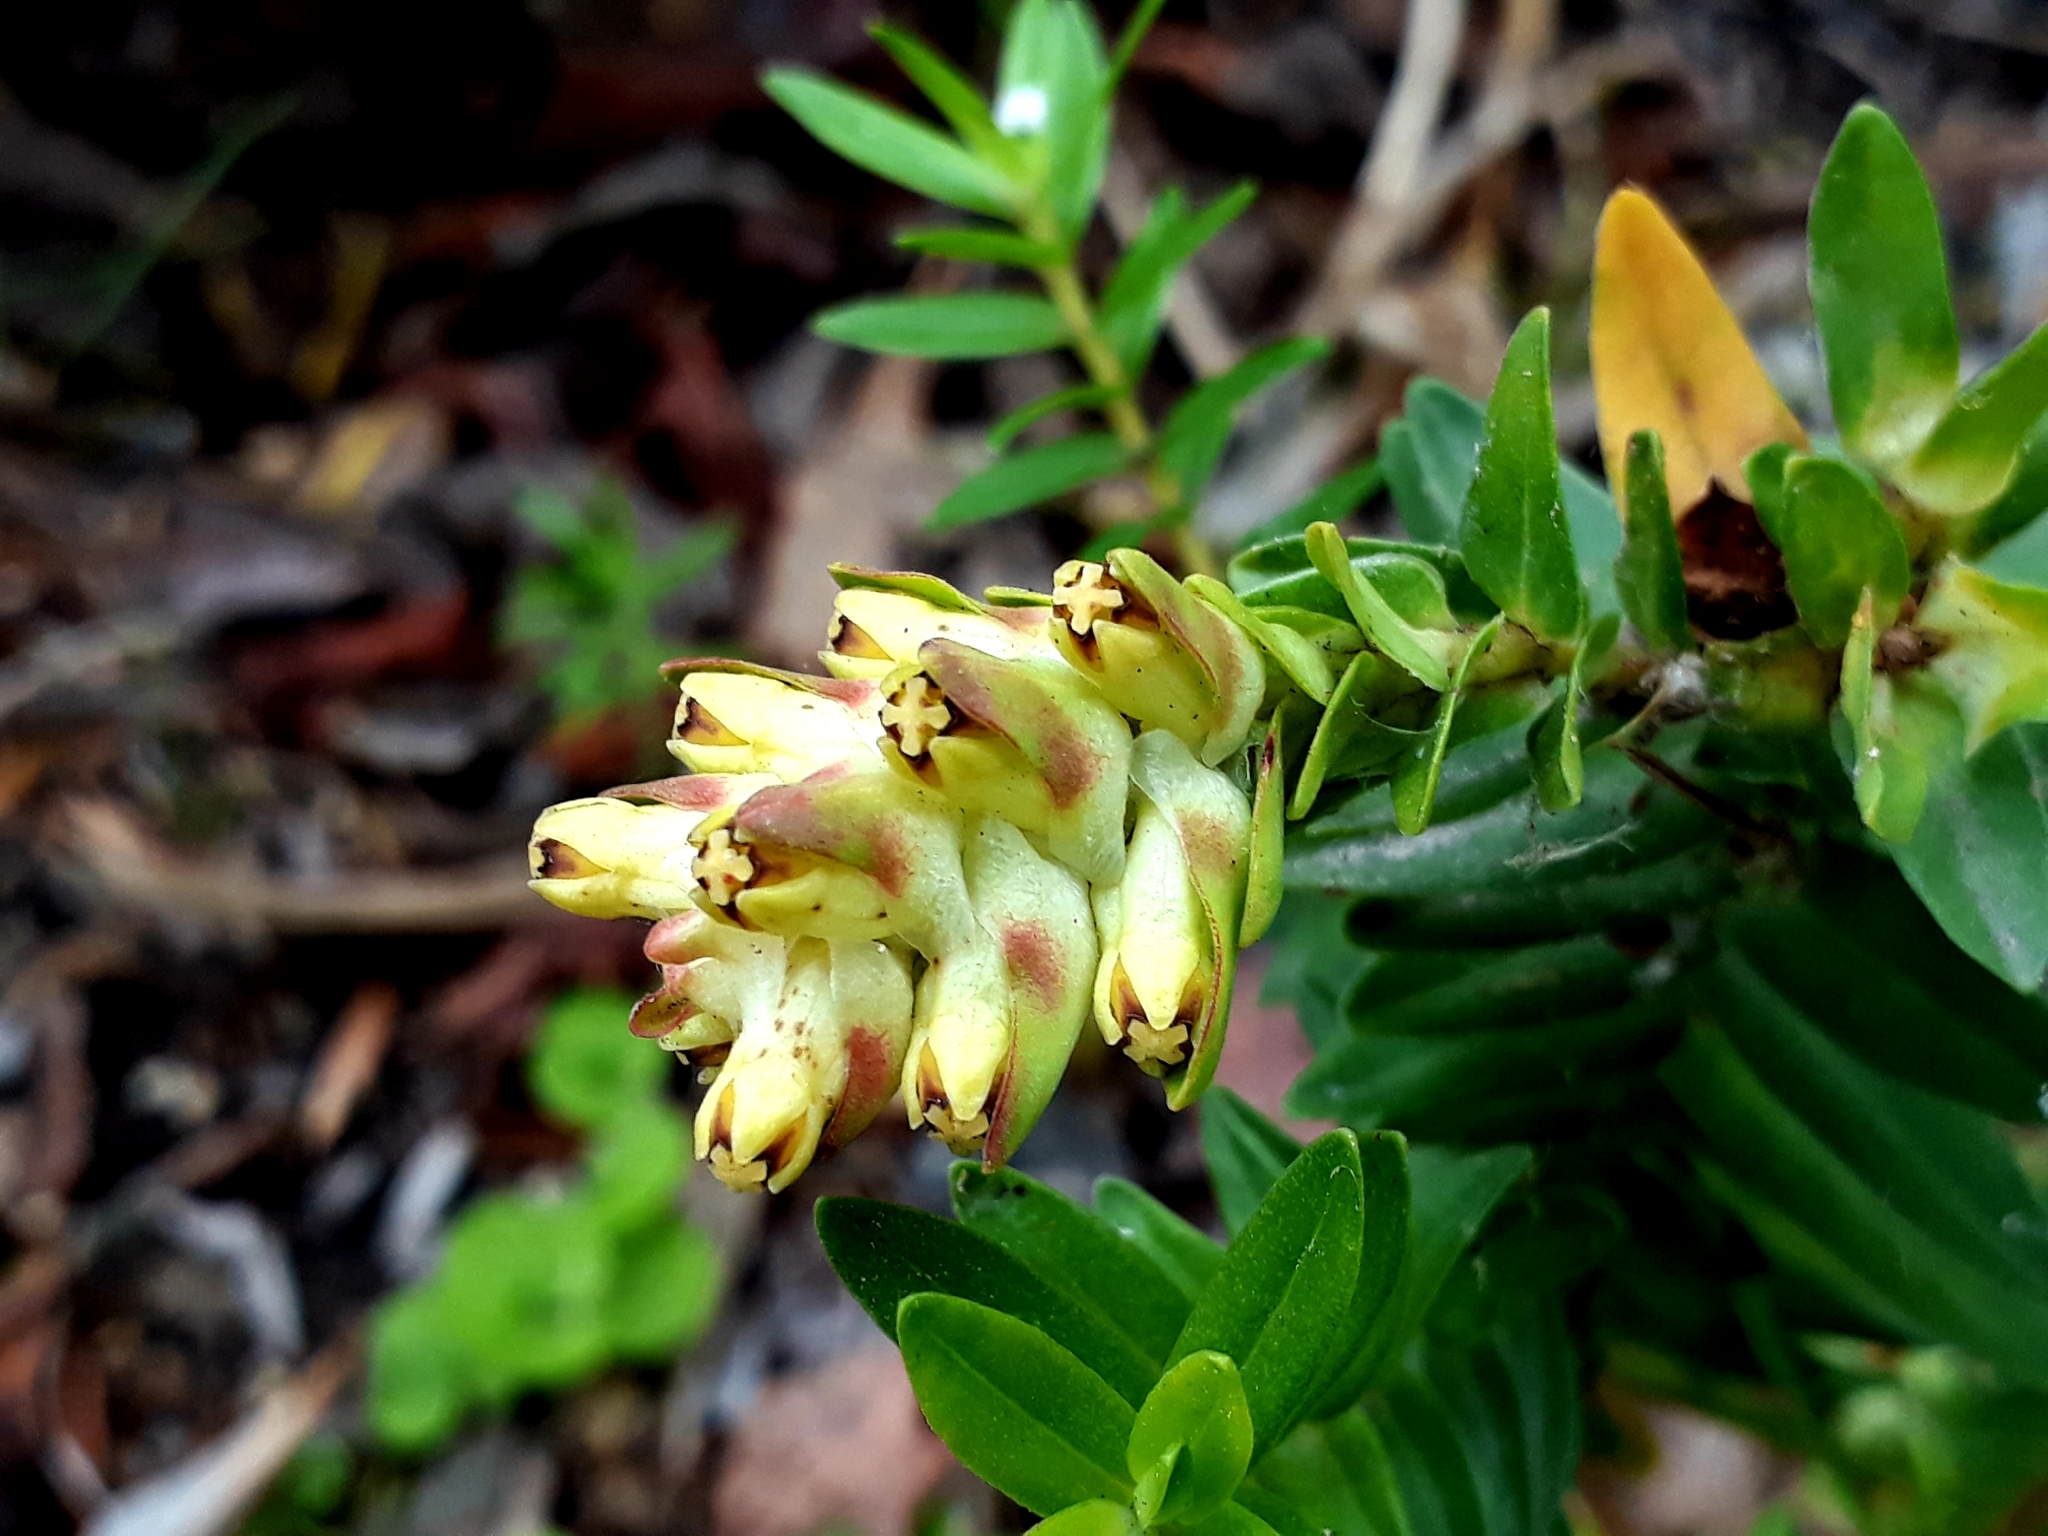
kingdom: Plantae
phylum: Tracheophyta
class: Magnoliopsida
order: Myrtales
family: Penaeaceae
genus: Penaea
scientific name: Penaea cneorum
